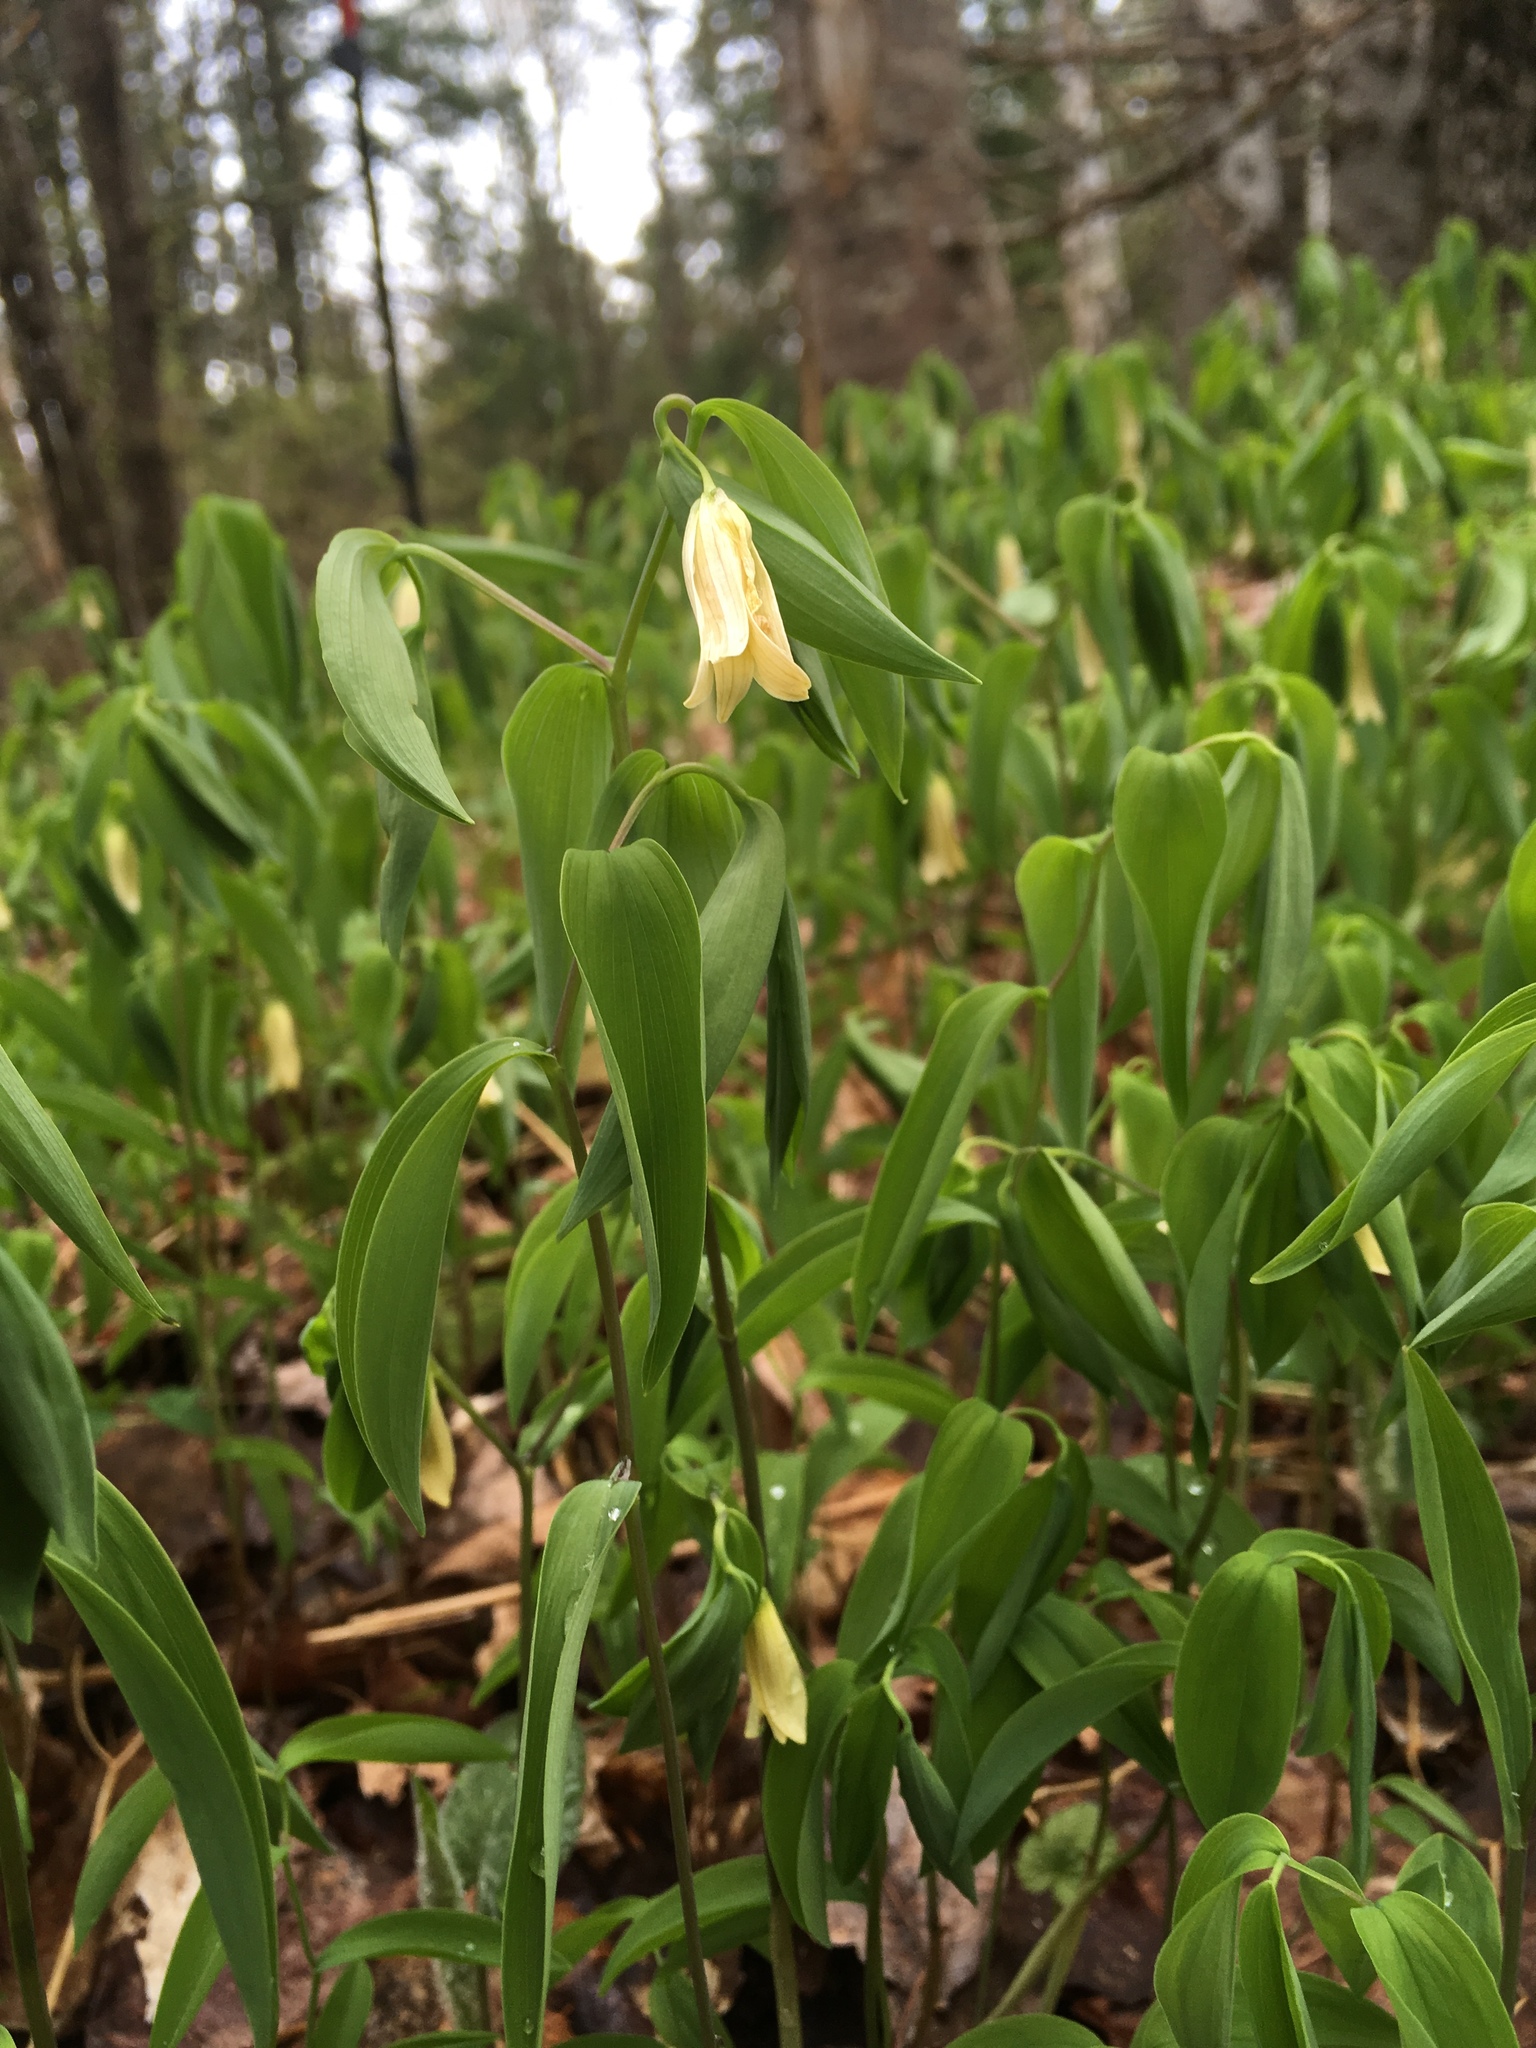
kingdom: Plantae
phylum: Tracheophyta
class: Liliopsida
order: Liliales
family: Colchicaceae
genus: Uvularia
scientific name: Uvularia sessilifolia
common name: Straw-lily
